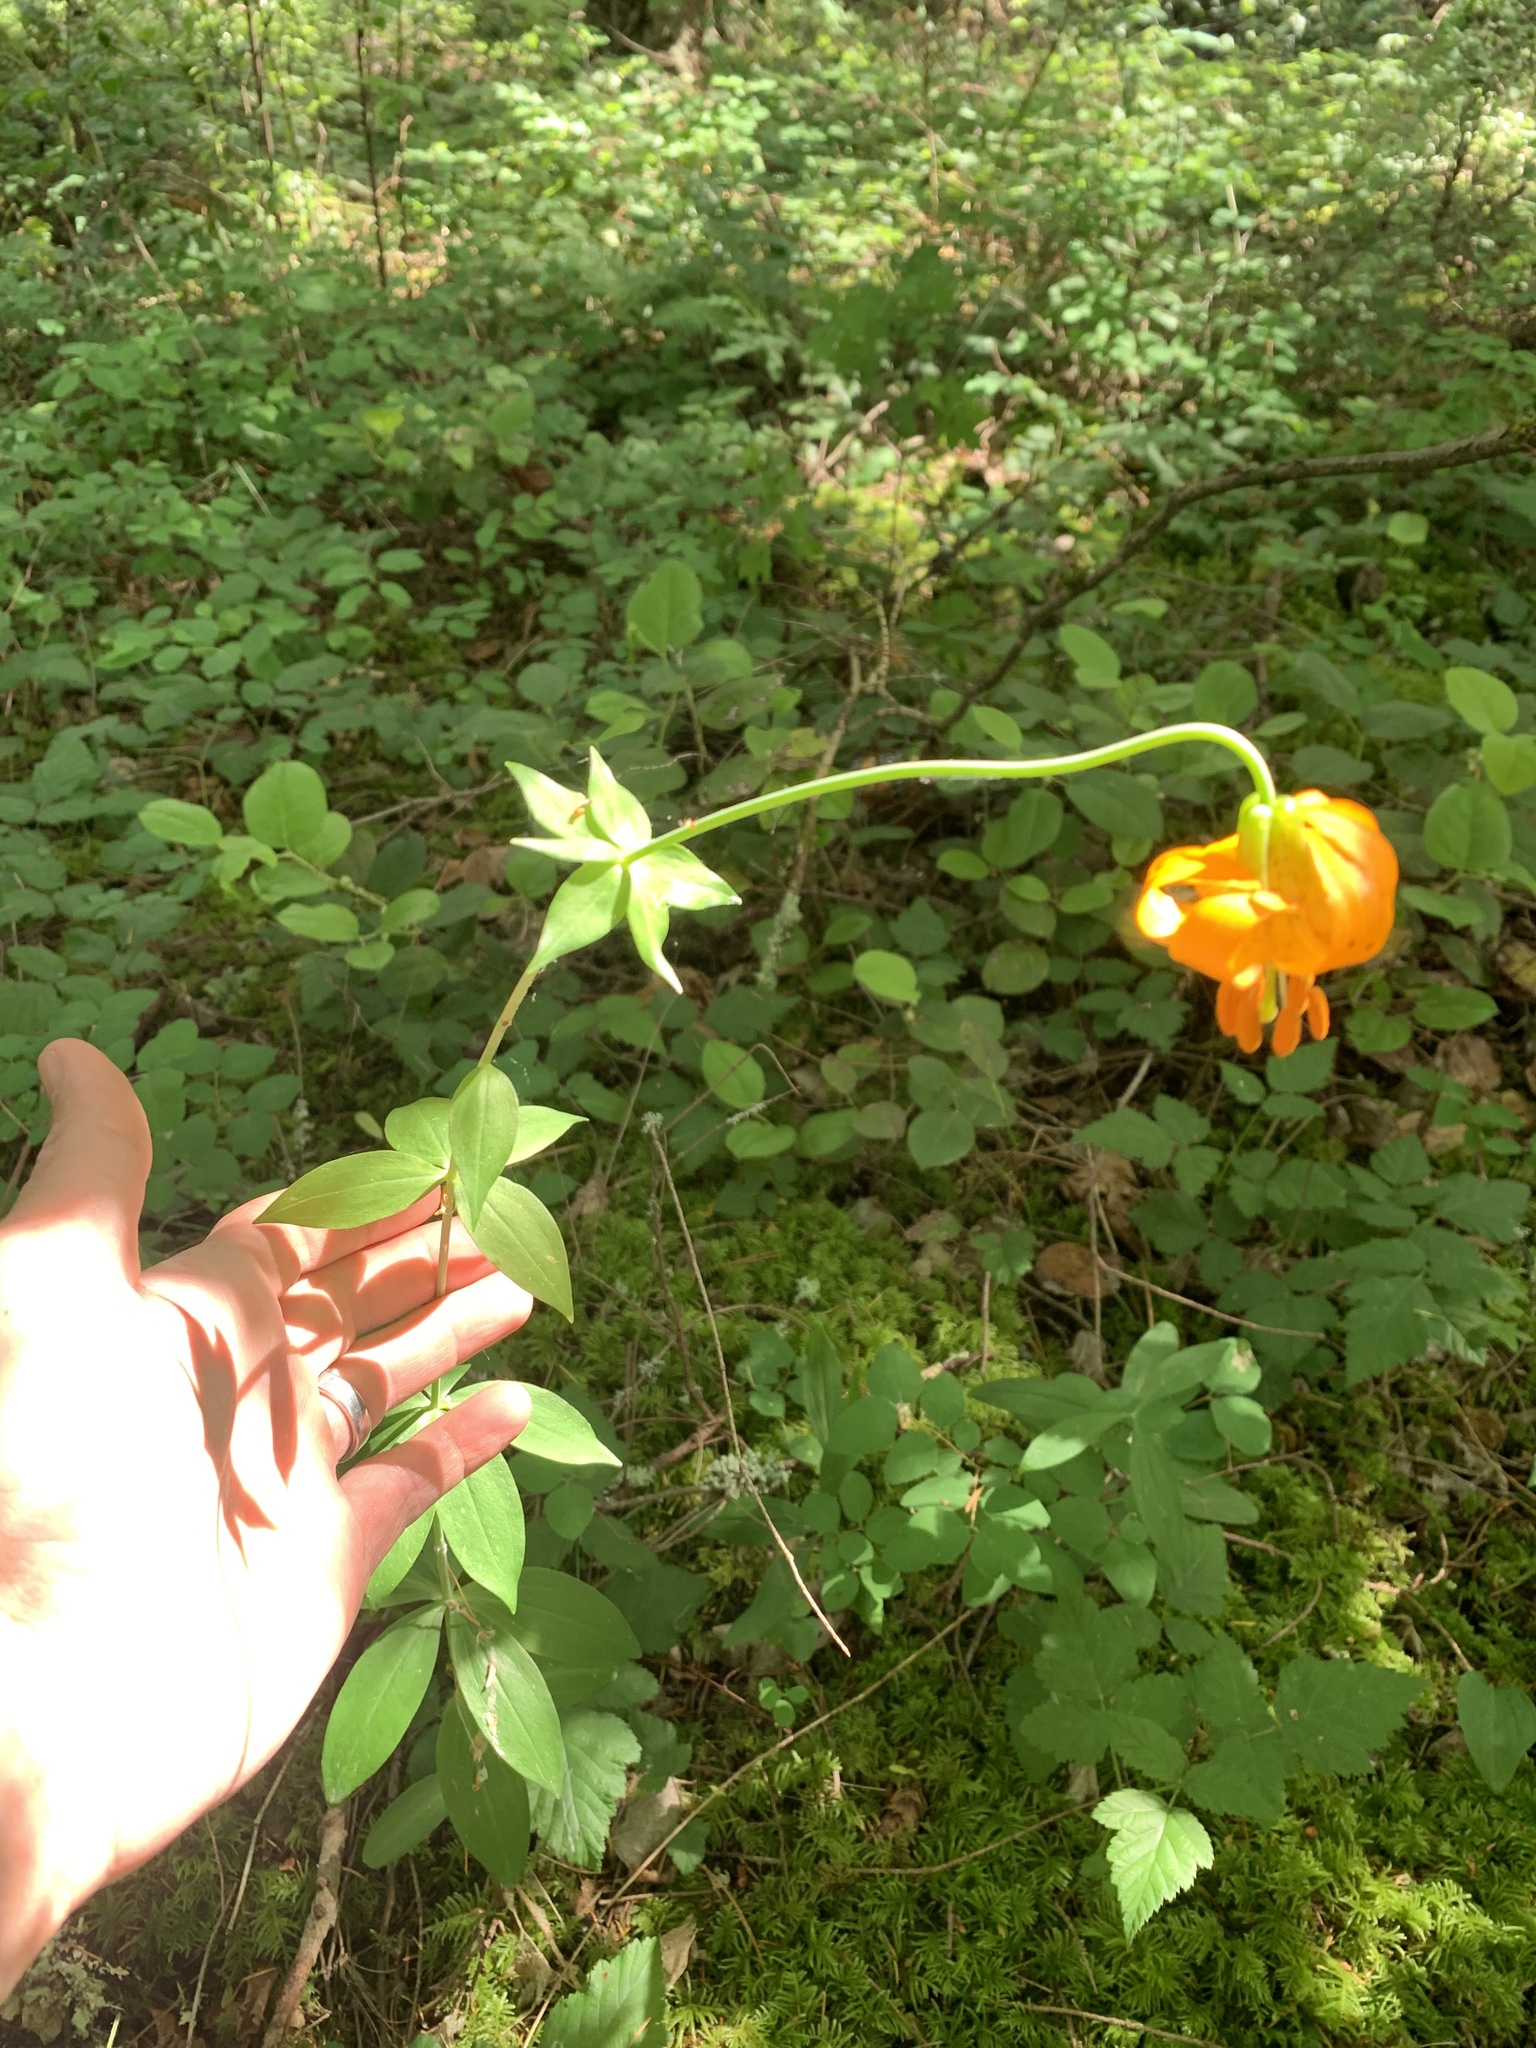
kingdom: Plantae
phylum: Tracheophyta
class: Liliopsida
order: Liliales
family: Liliaceae
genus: Lilium
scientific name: Lilium columbianum
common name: Columbia lily
